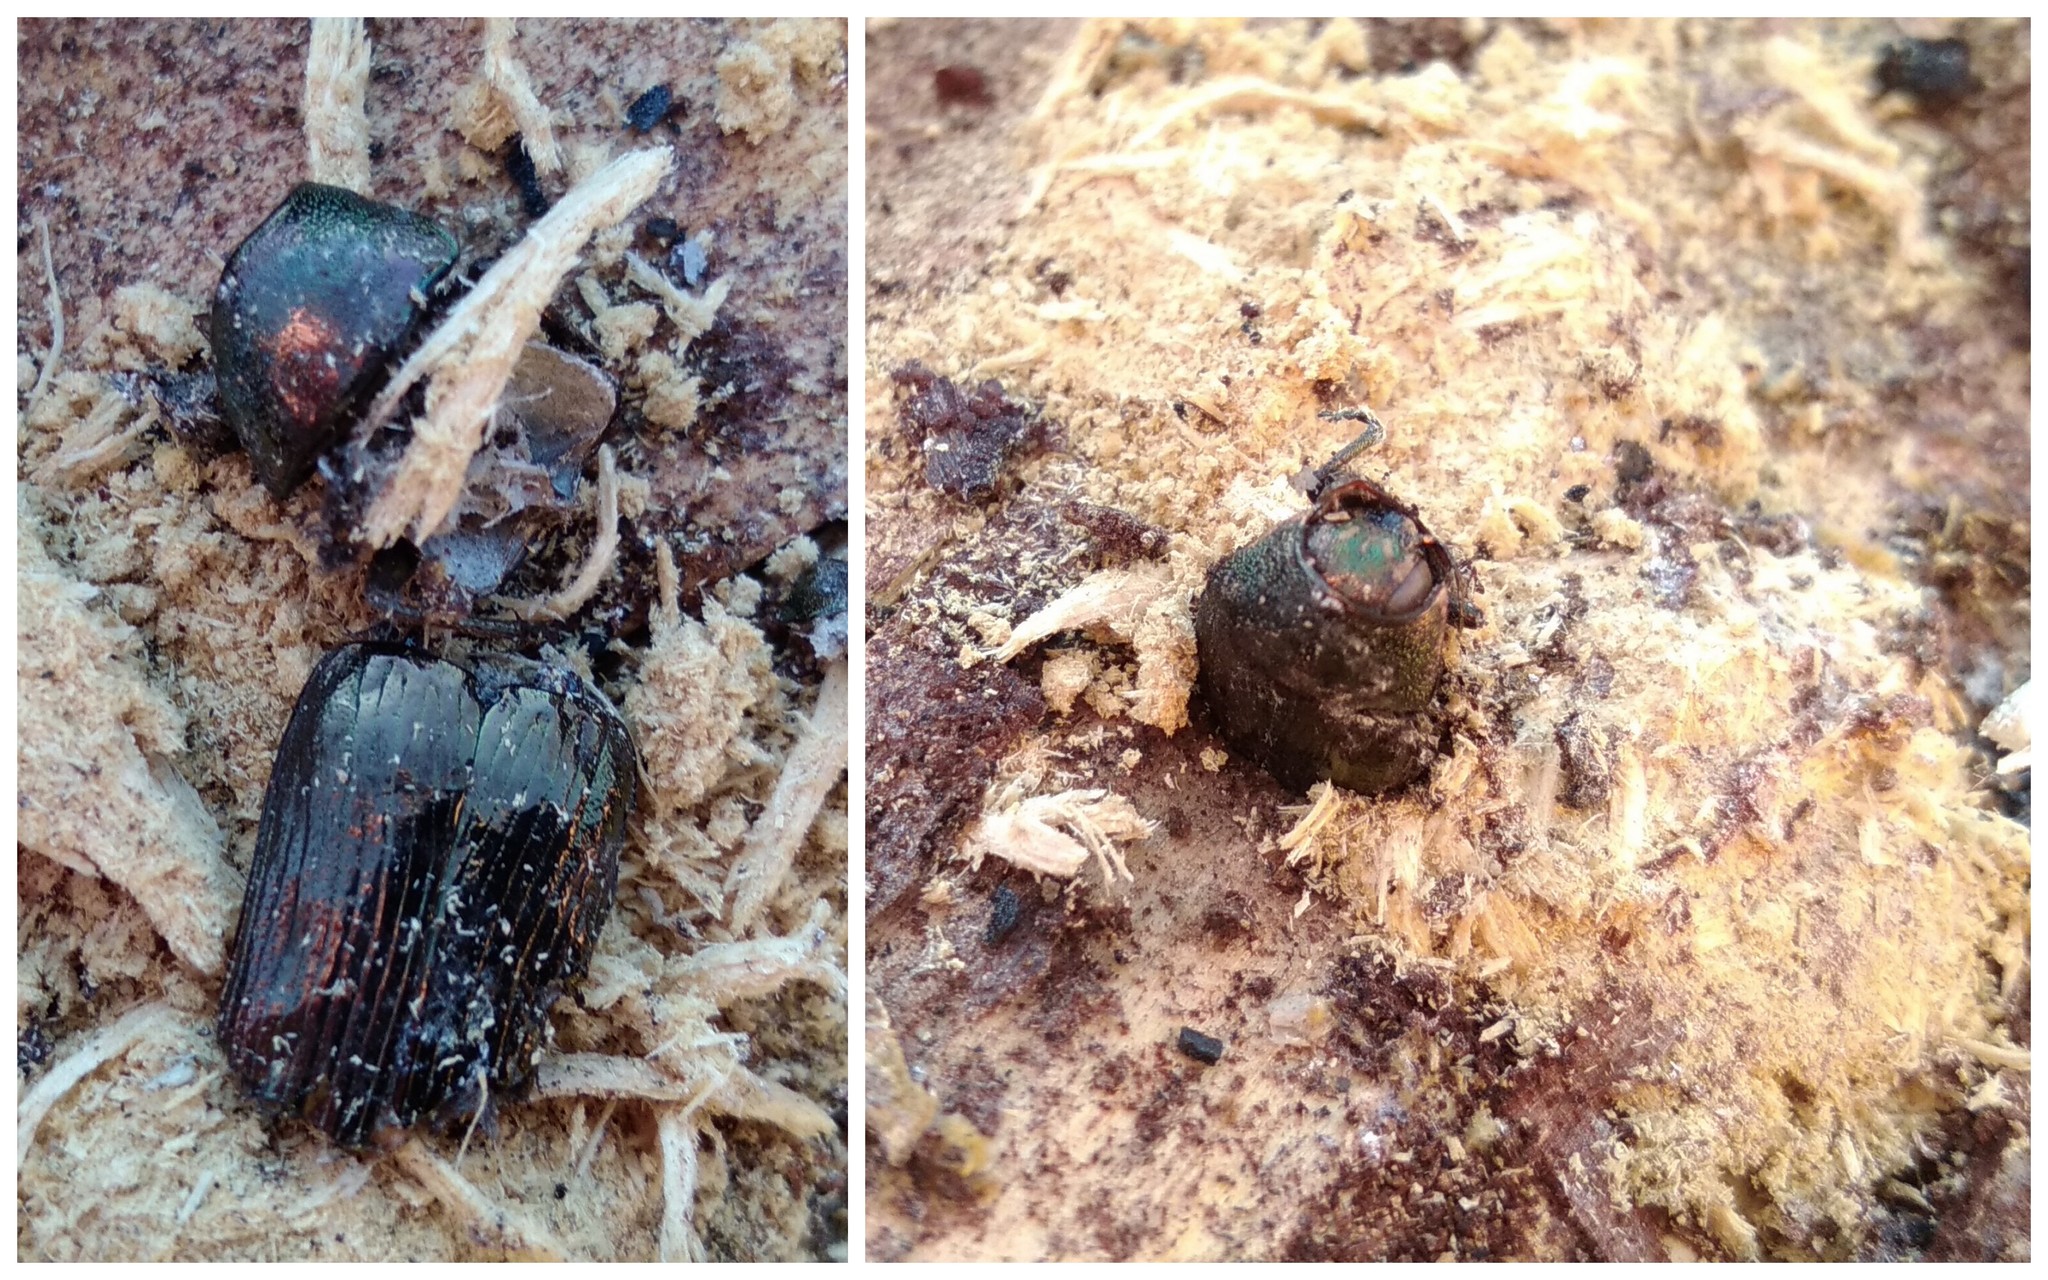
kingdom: Animalia
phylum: Arthropoda
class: Insecta
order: Coleoptera
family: Buprestidae
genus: Buprestis
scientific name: Buprestis haemorrhoidalis
